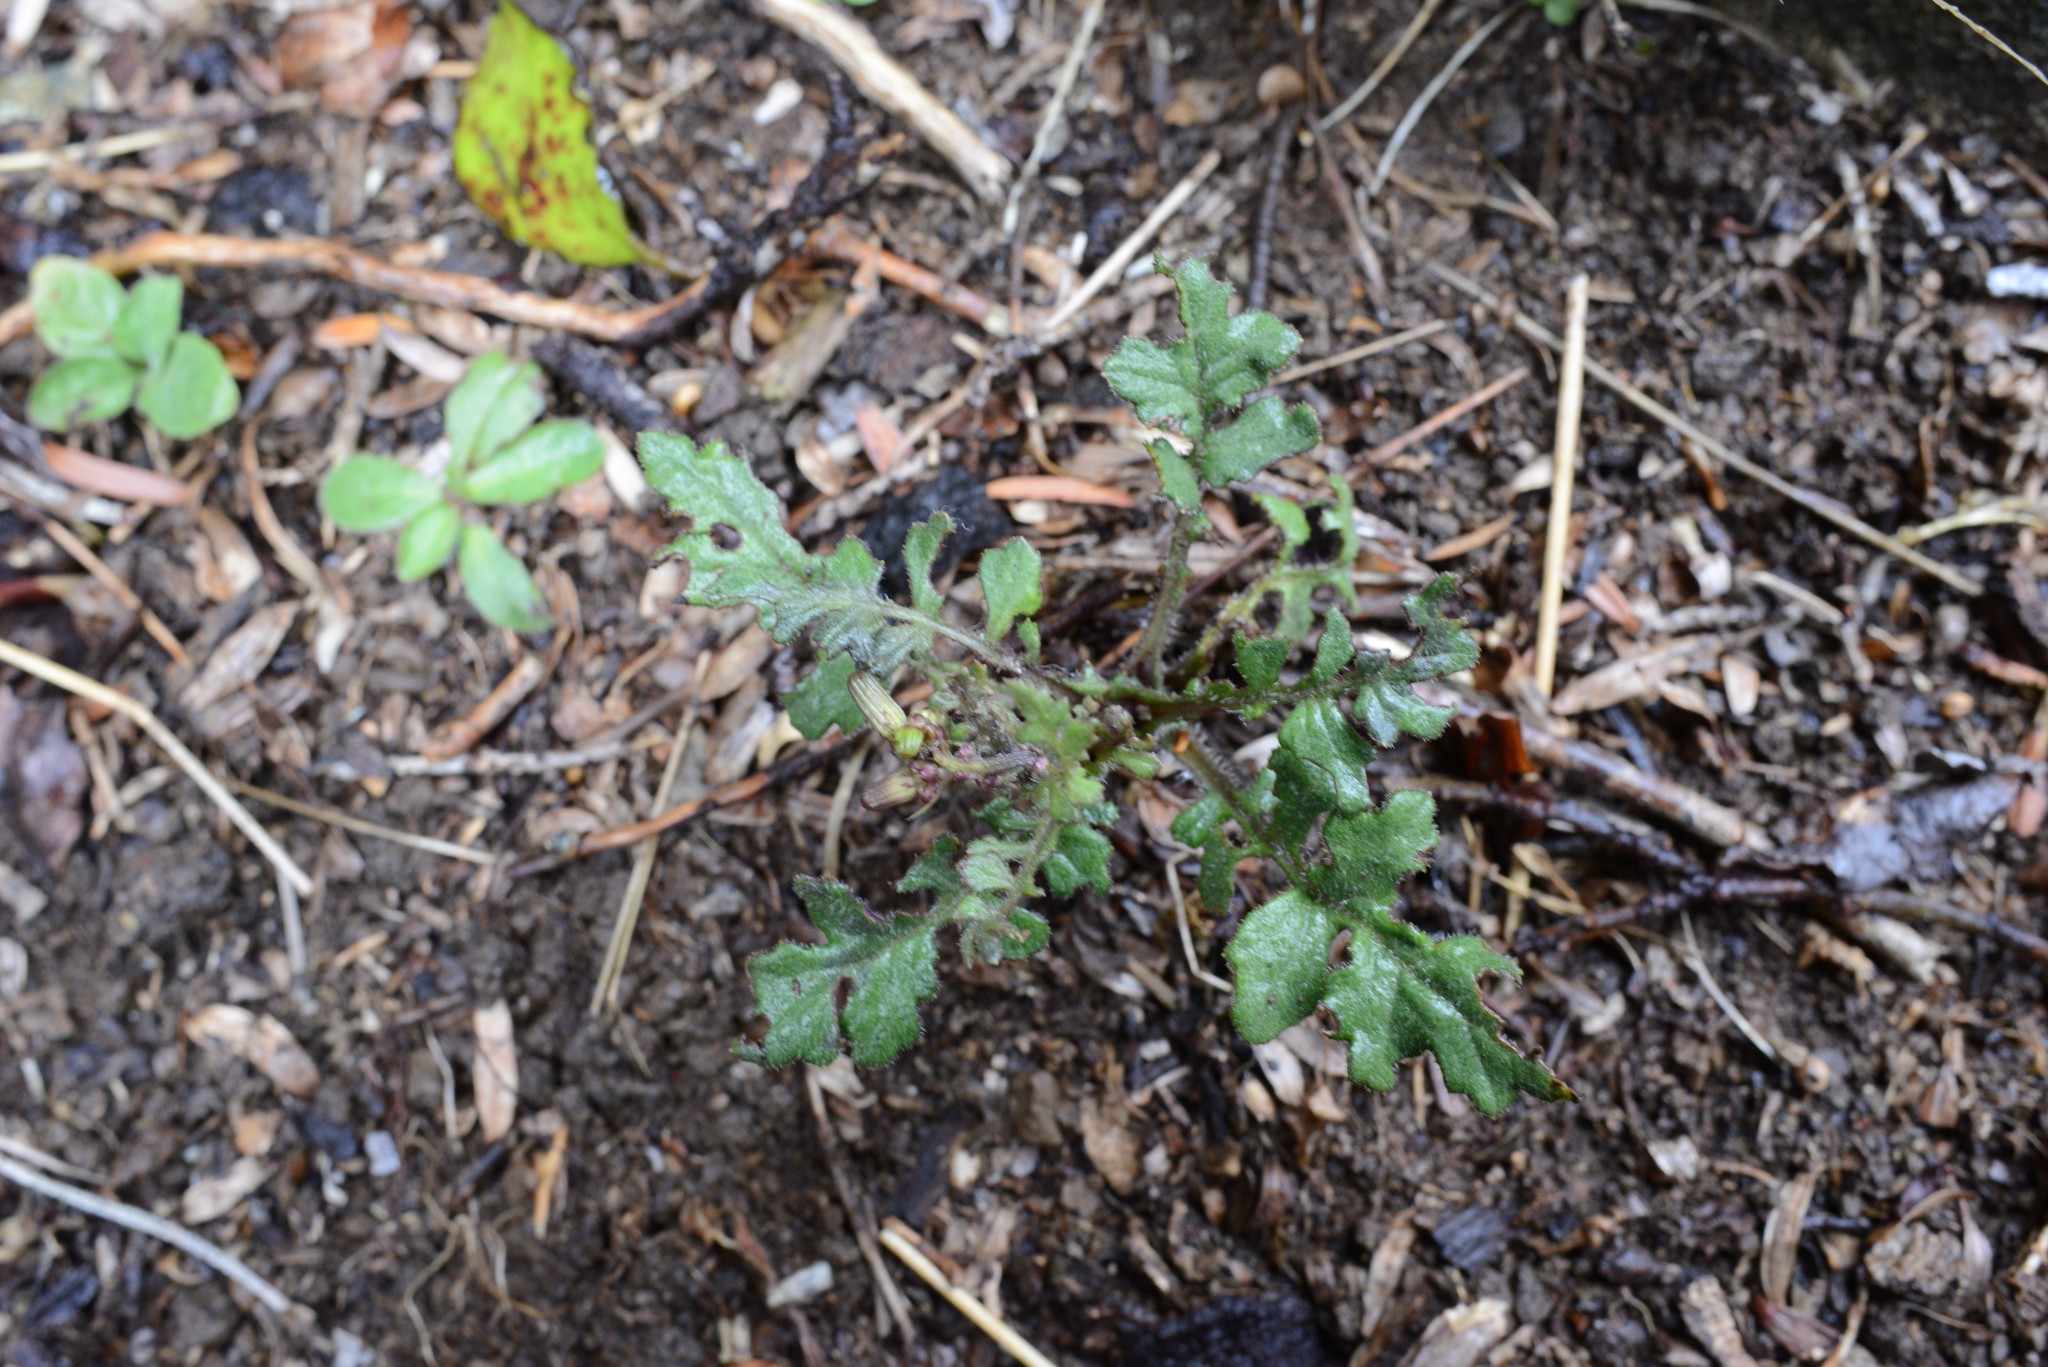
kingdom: Plantae
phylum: Tracheophyta
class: Magnoliopsida
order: Asterales
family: Asteraceae
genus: Senecio
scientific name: Senecio wairauensis
